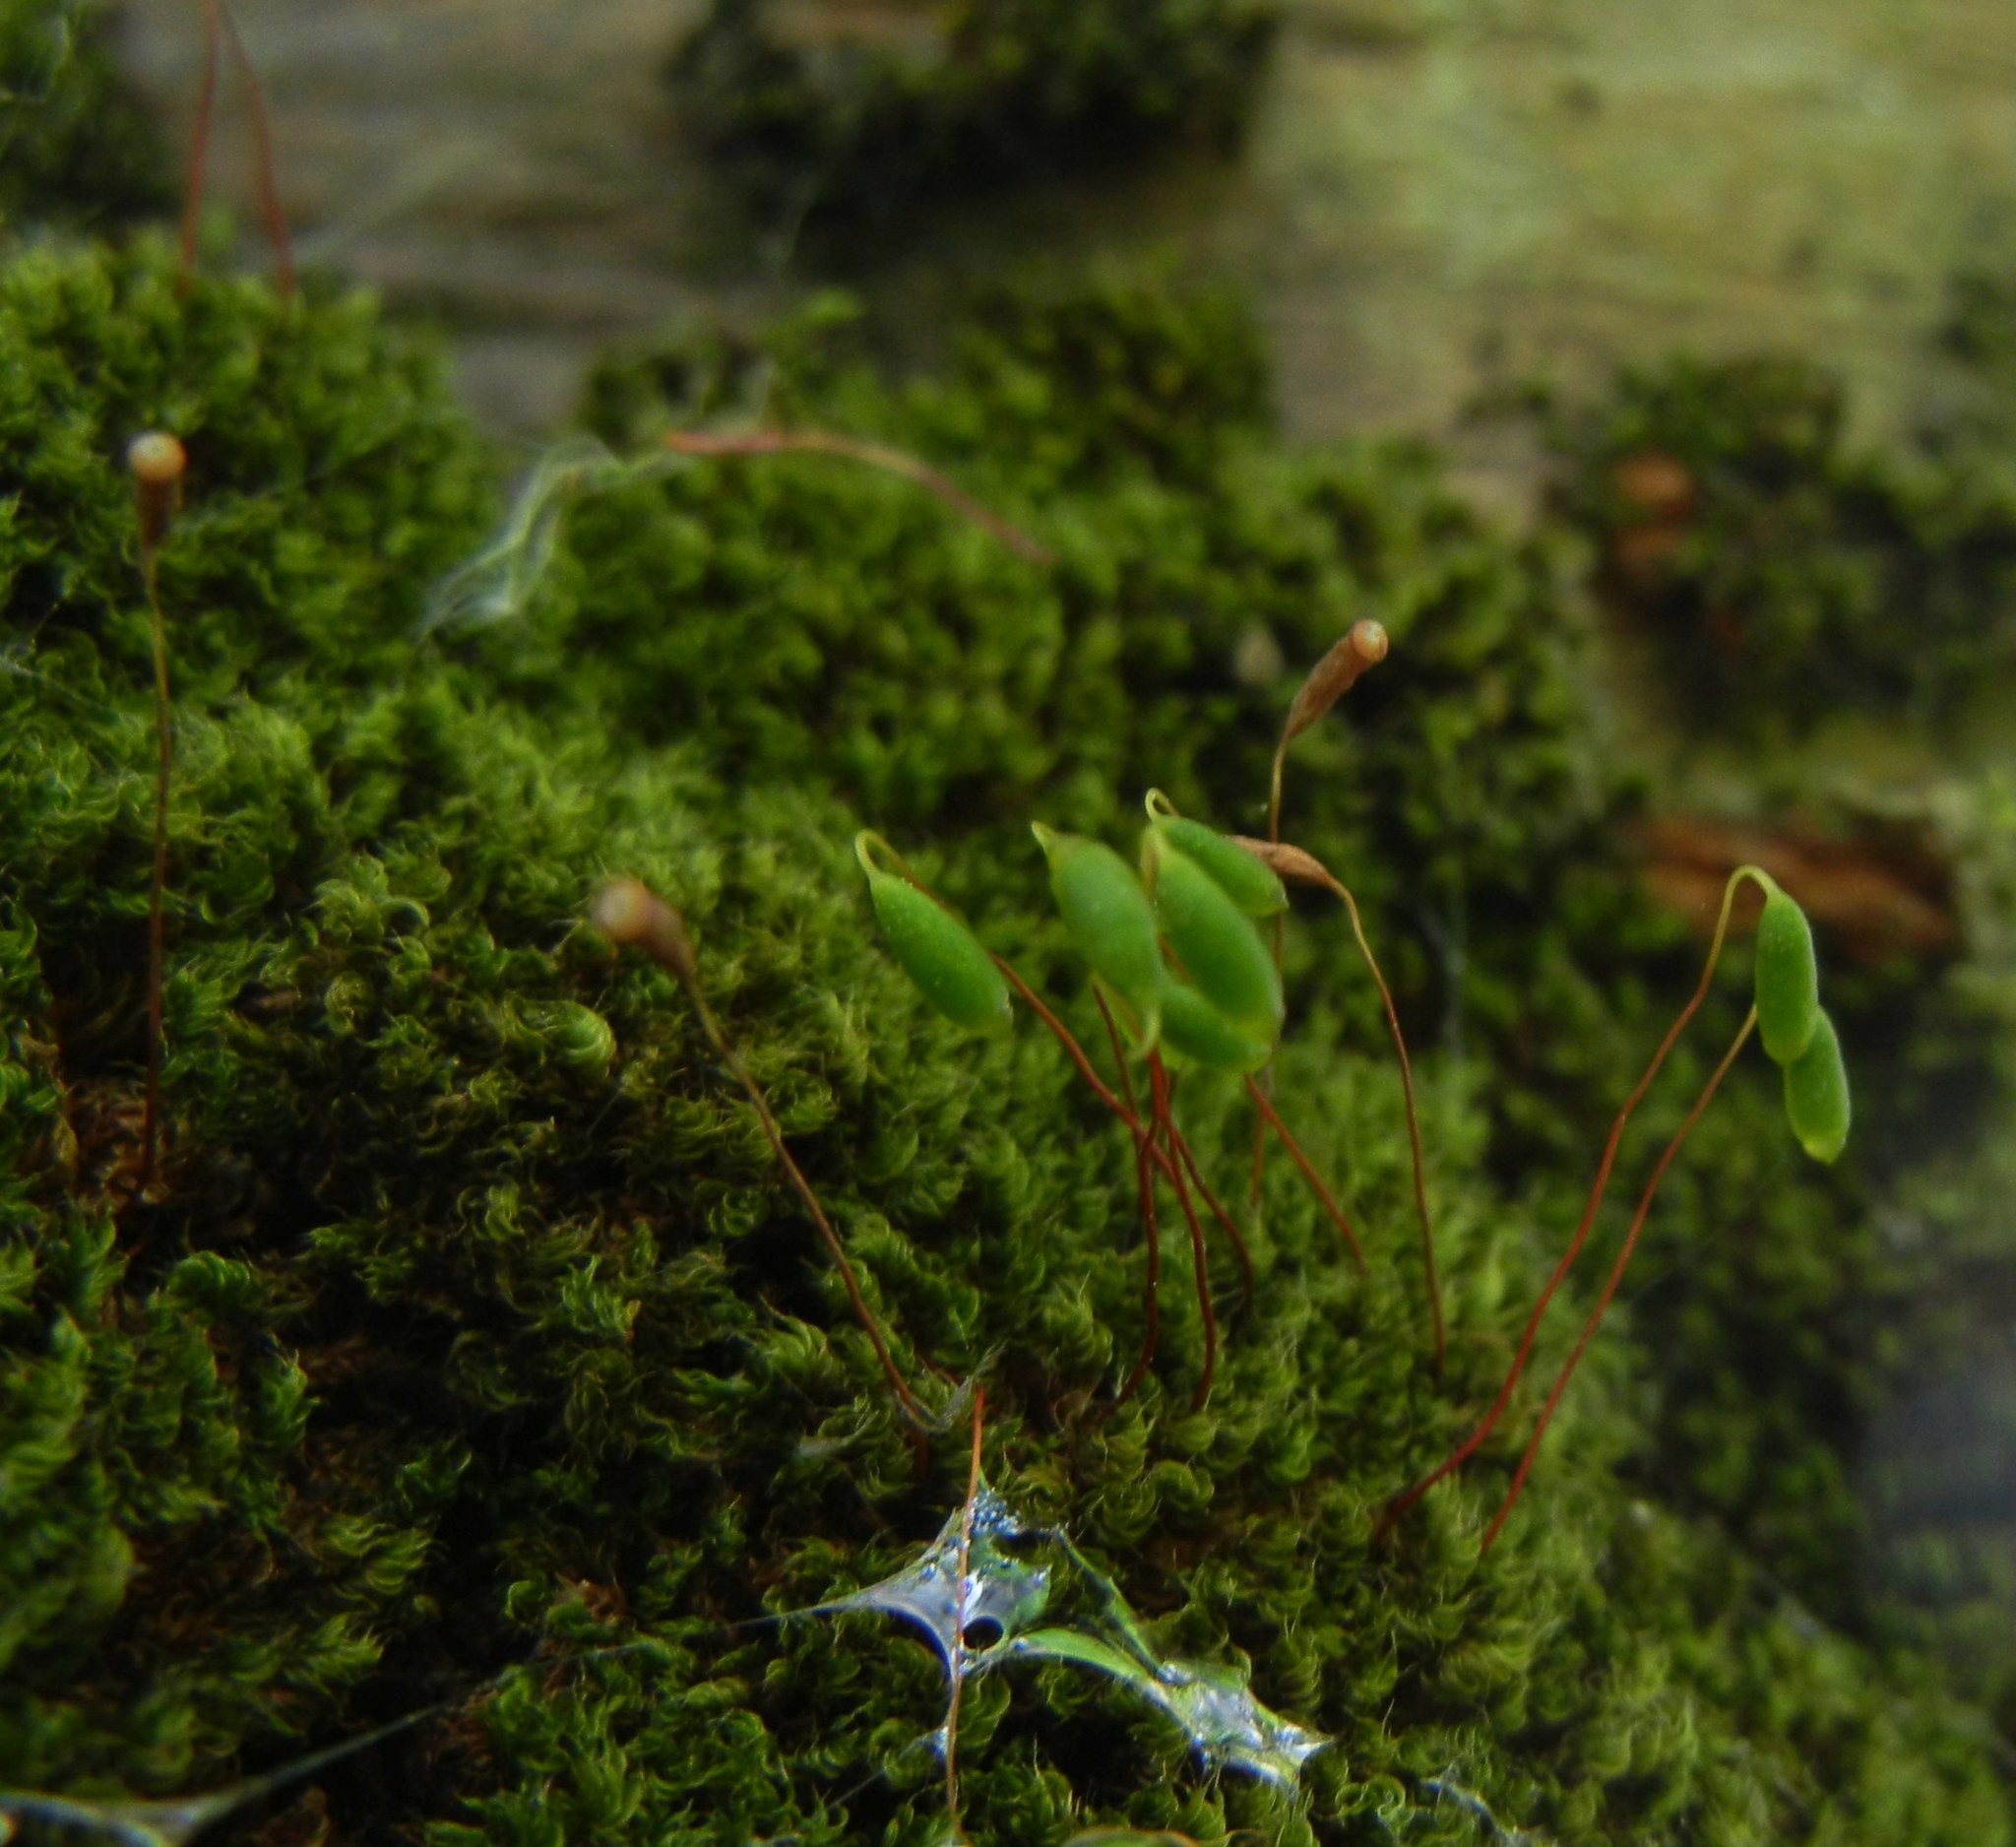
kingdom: Plantae
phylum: Bryophyta
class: Bryopsida
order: Bryales
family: Bryaceae
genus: Rosulabryum
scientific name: Rosulabryum capillare
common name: Capillary thread-moss
